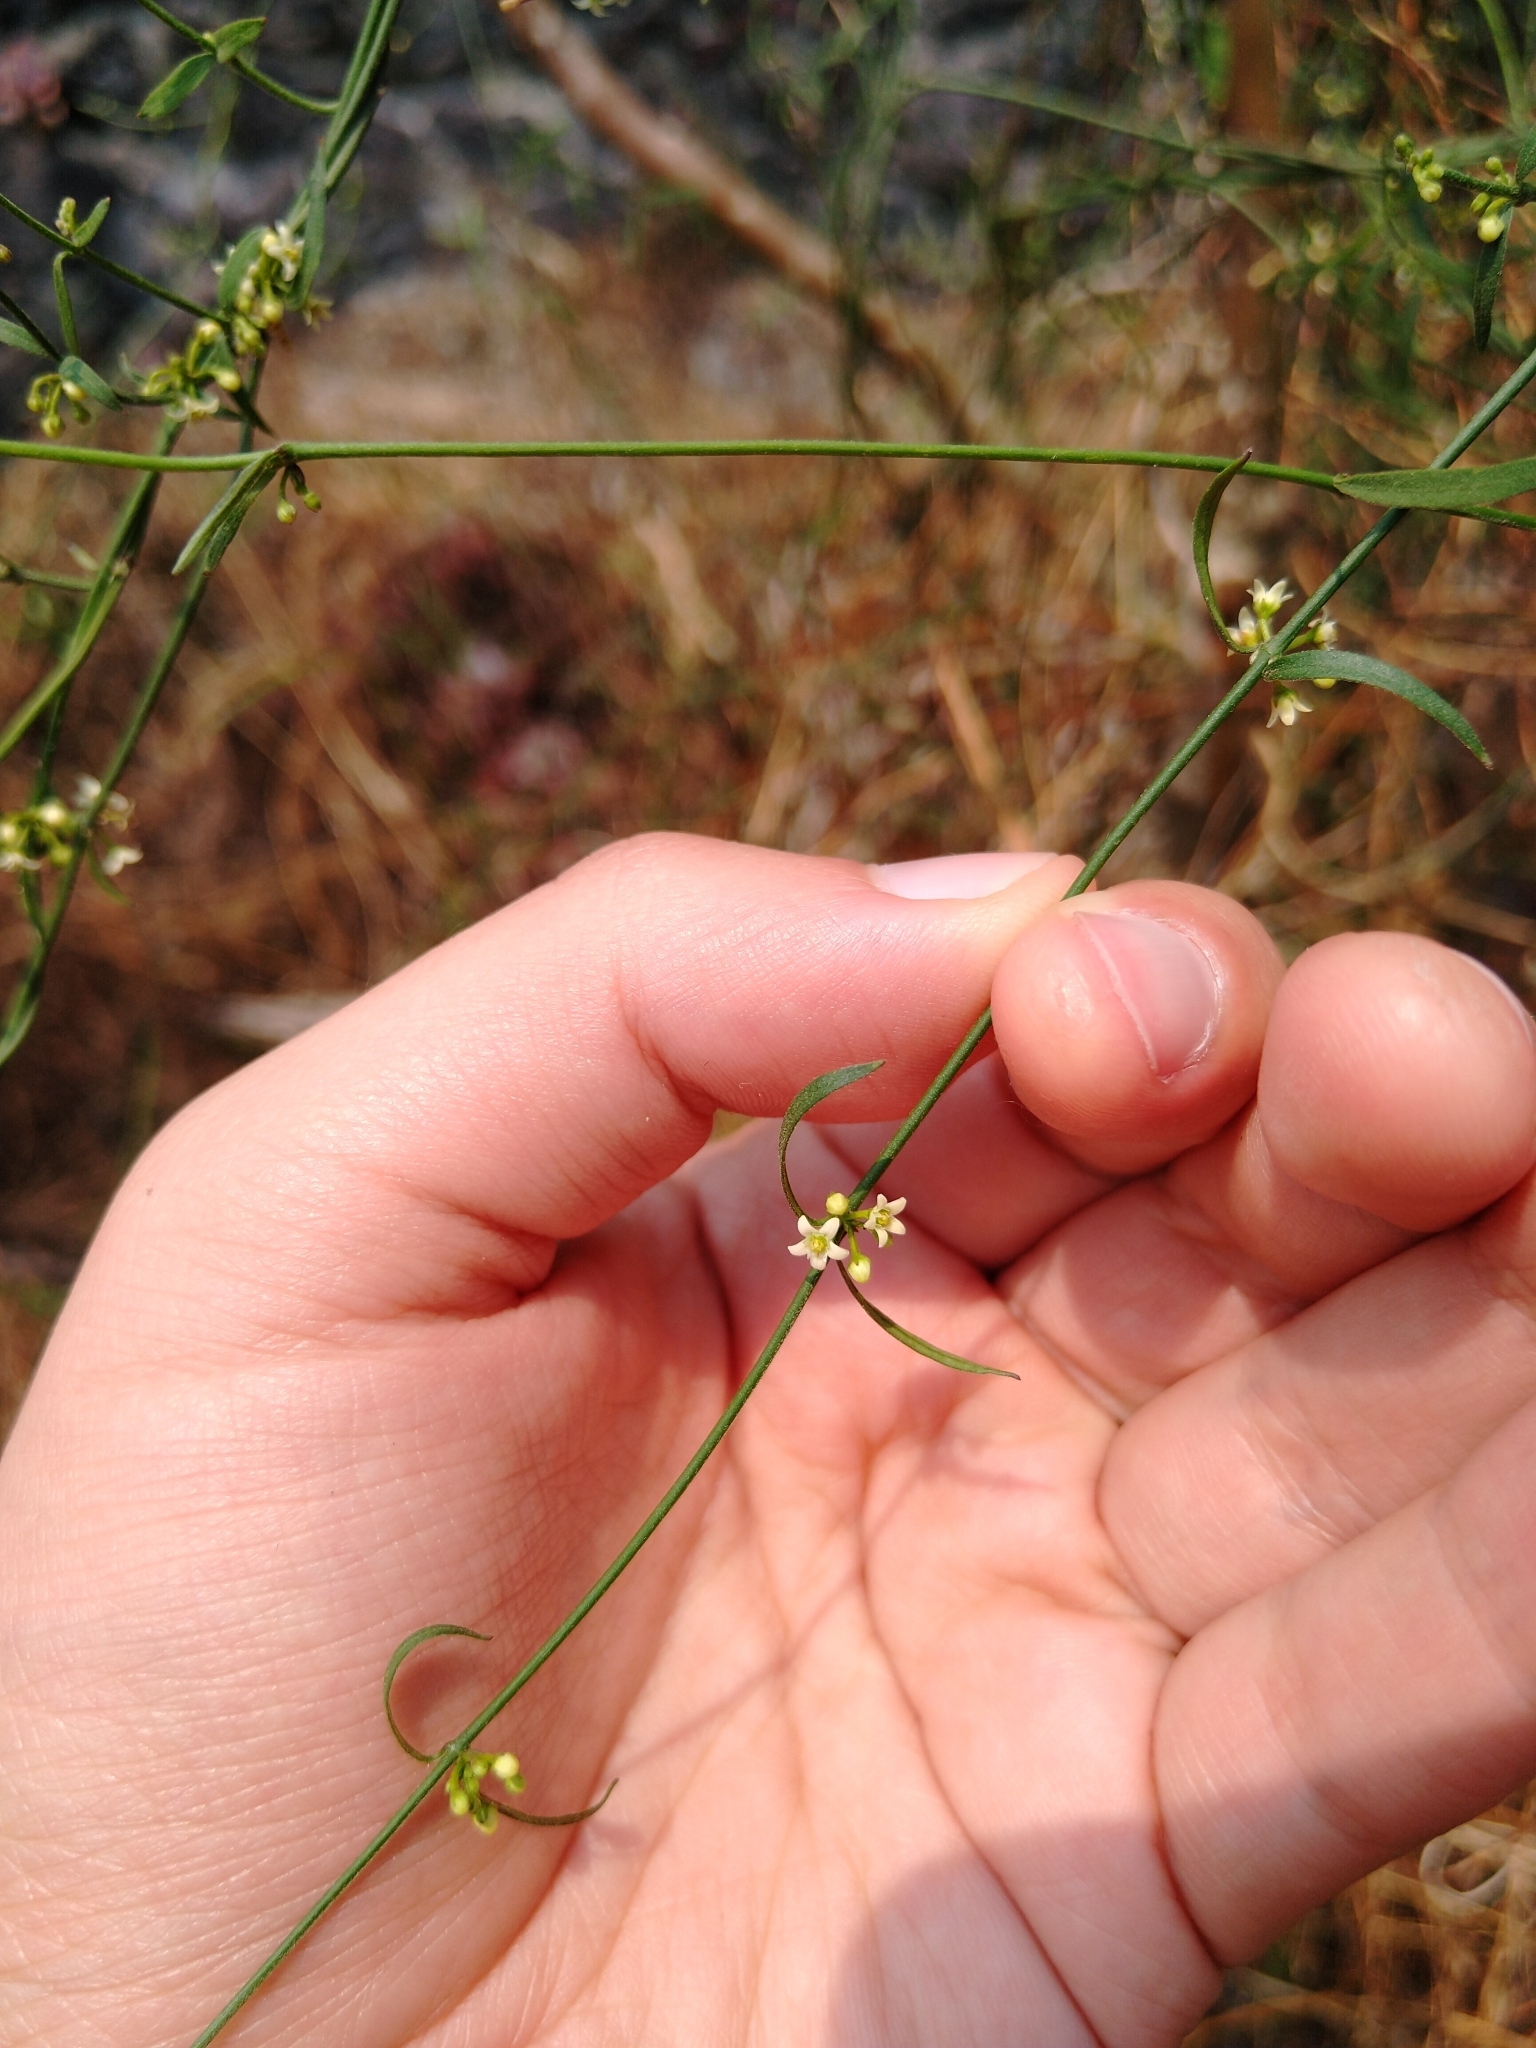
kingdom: Plantae
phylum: Tracheophyta
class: Magnoliopsida
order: Gentianales
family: Apocynaceae
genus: Orthosia
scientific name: Orthosia angustifolia
